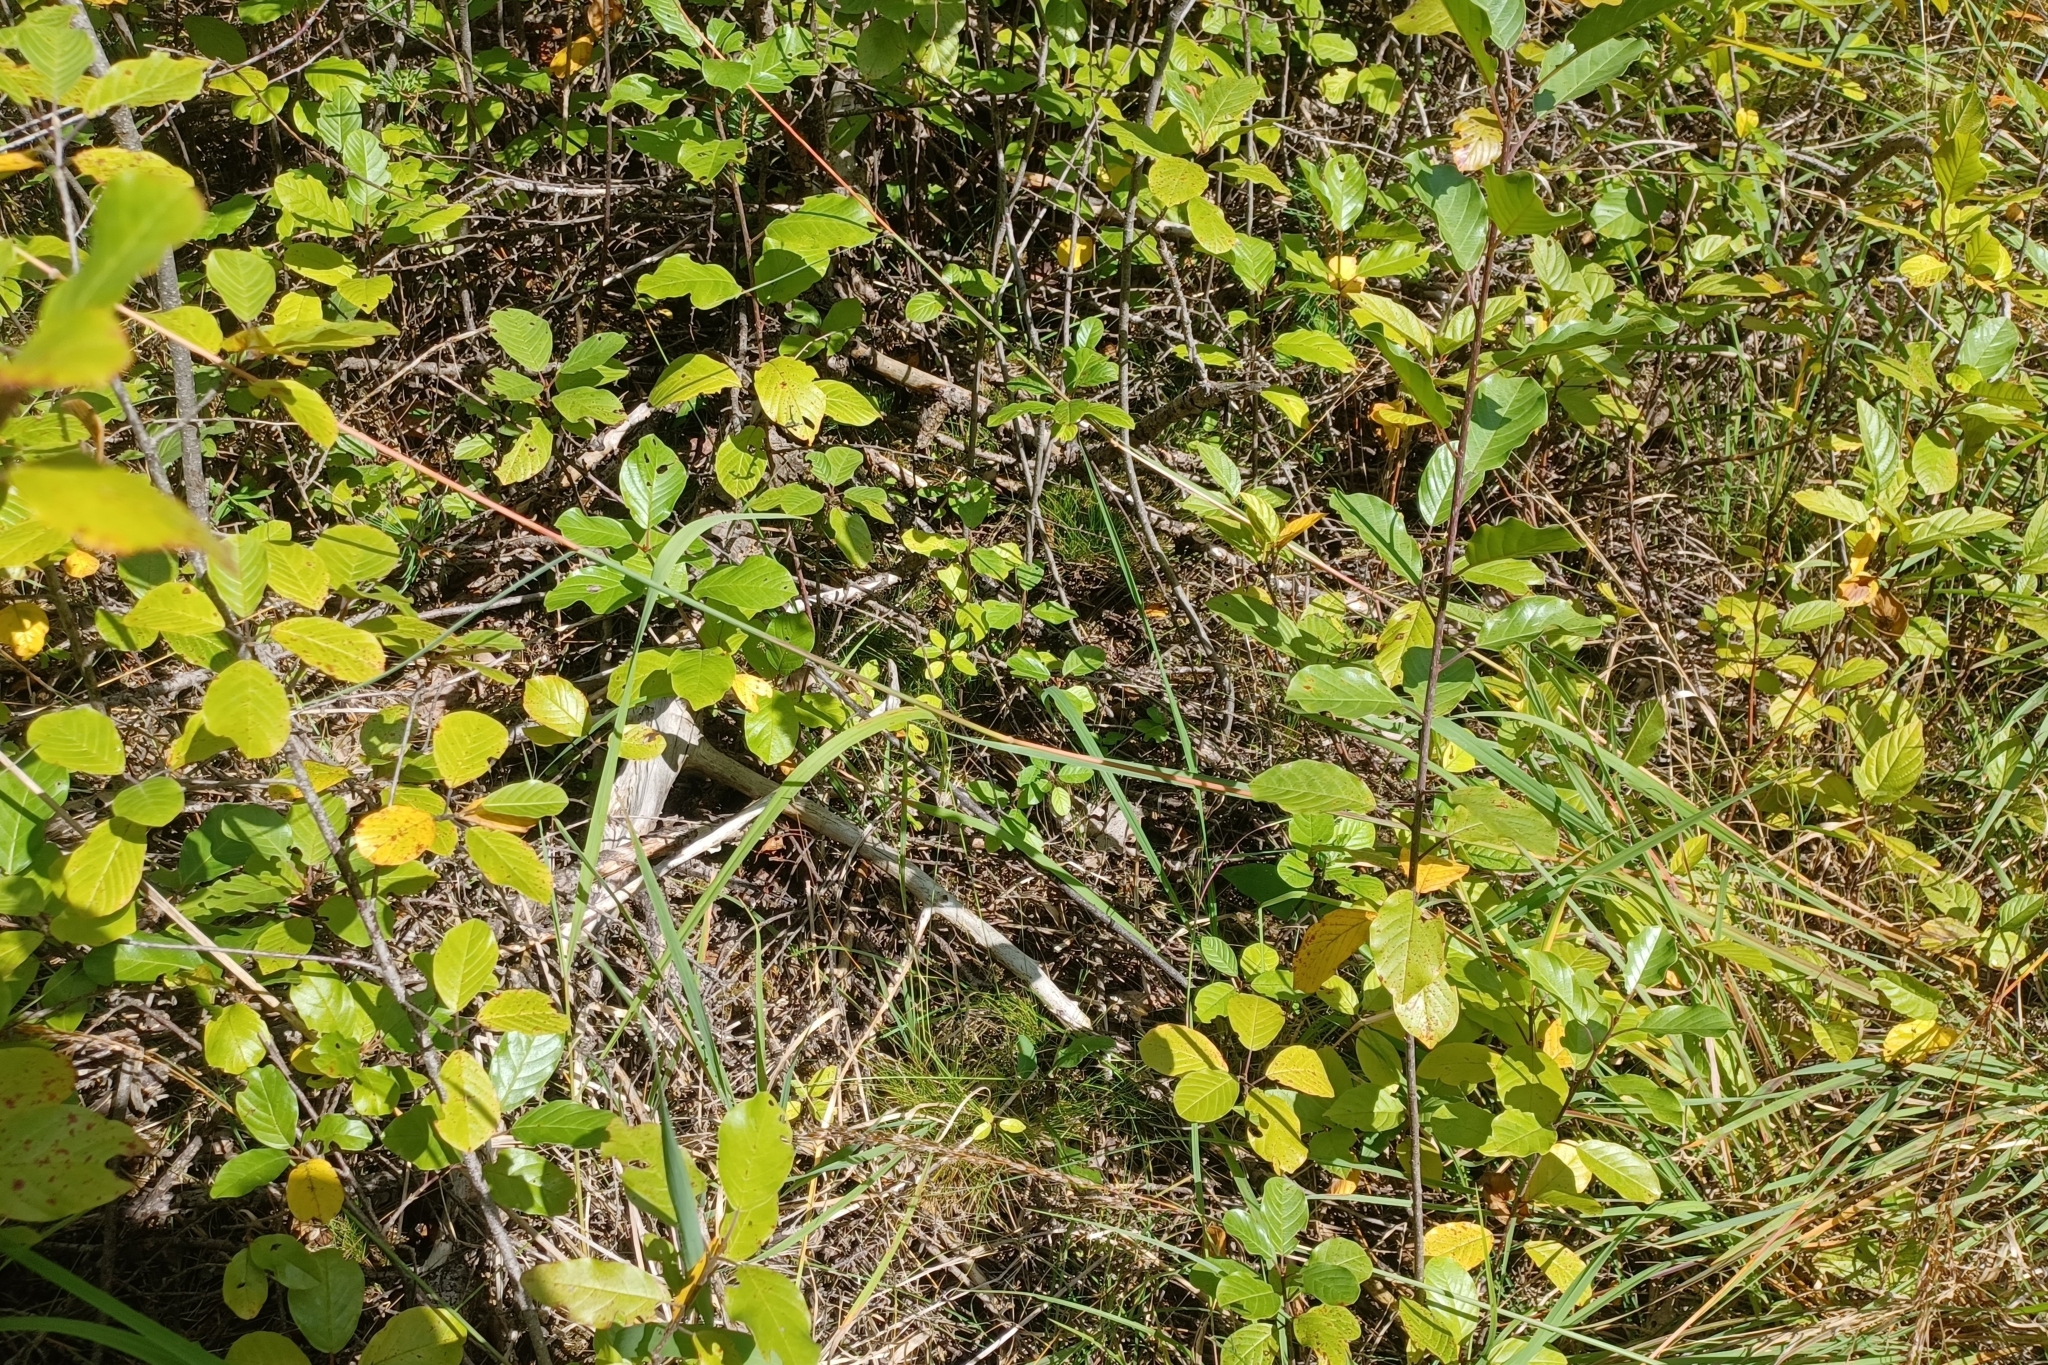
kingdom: Plantae
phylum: Tracheophyta
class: Liliopsida
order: Poales
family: Cyperaceae
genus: Carex
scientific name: Carex eburnea
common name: Bristle-leaved sedge
